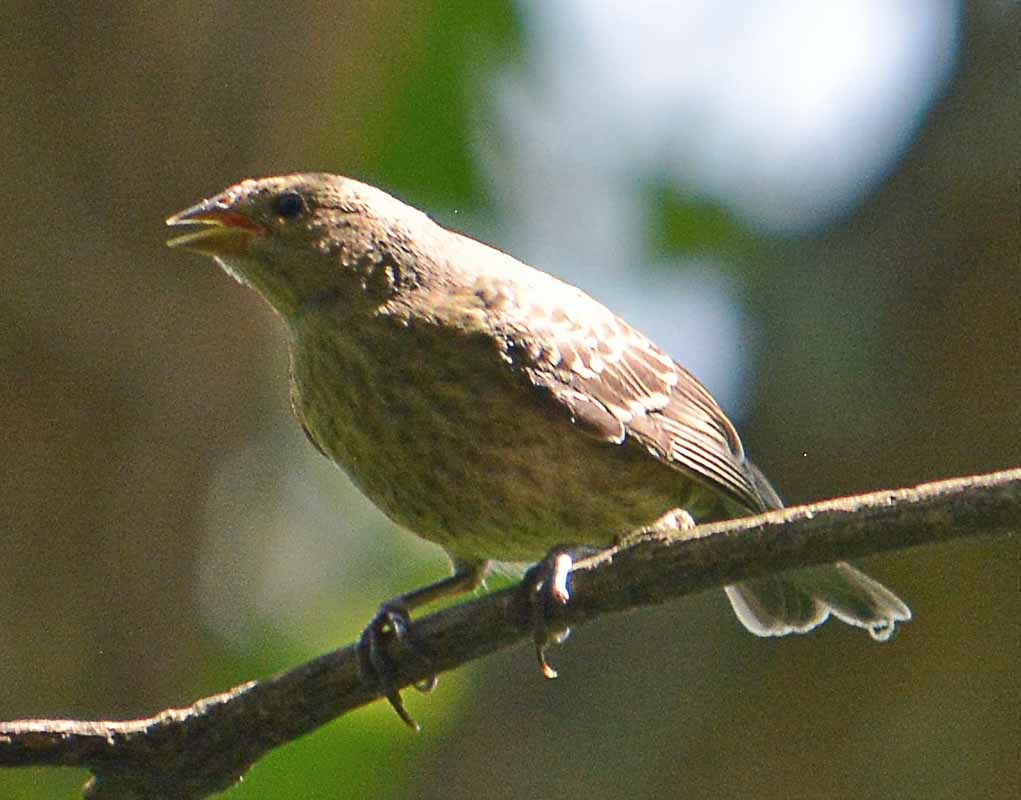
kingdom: Animalia
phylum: Chordata
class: Aves
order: Passeriformes
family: Icteridae
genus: Molothrus
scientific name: Molothrus ater
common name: Brown-headed cowbird
